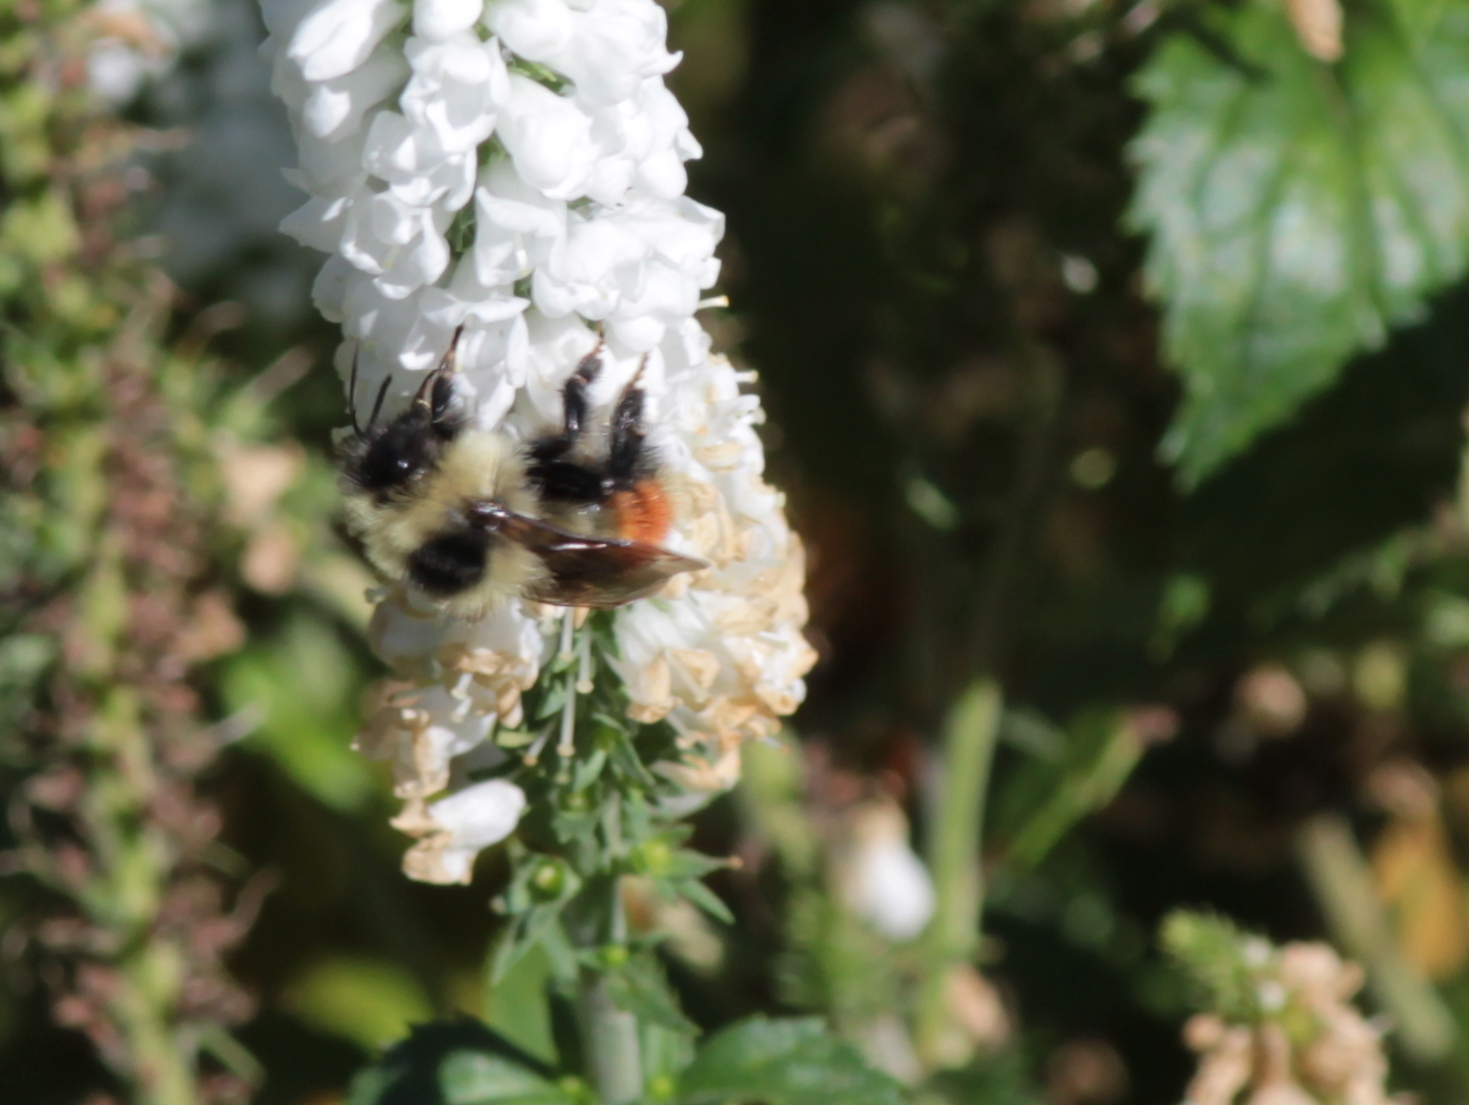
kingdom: Animalia
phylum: Arthropoda
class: Insecta
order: Hymenoptera
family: Apidae
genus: Bombus
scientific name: Bombus rufocinctus
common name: Red-belted bumble bee
